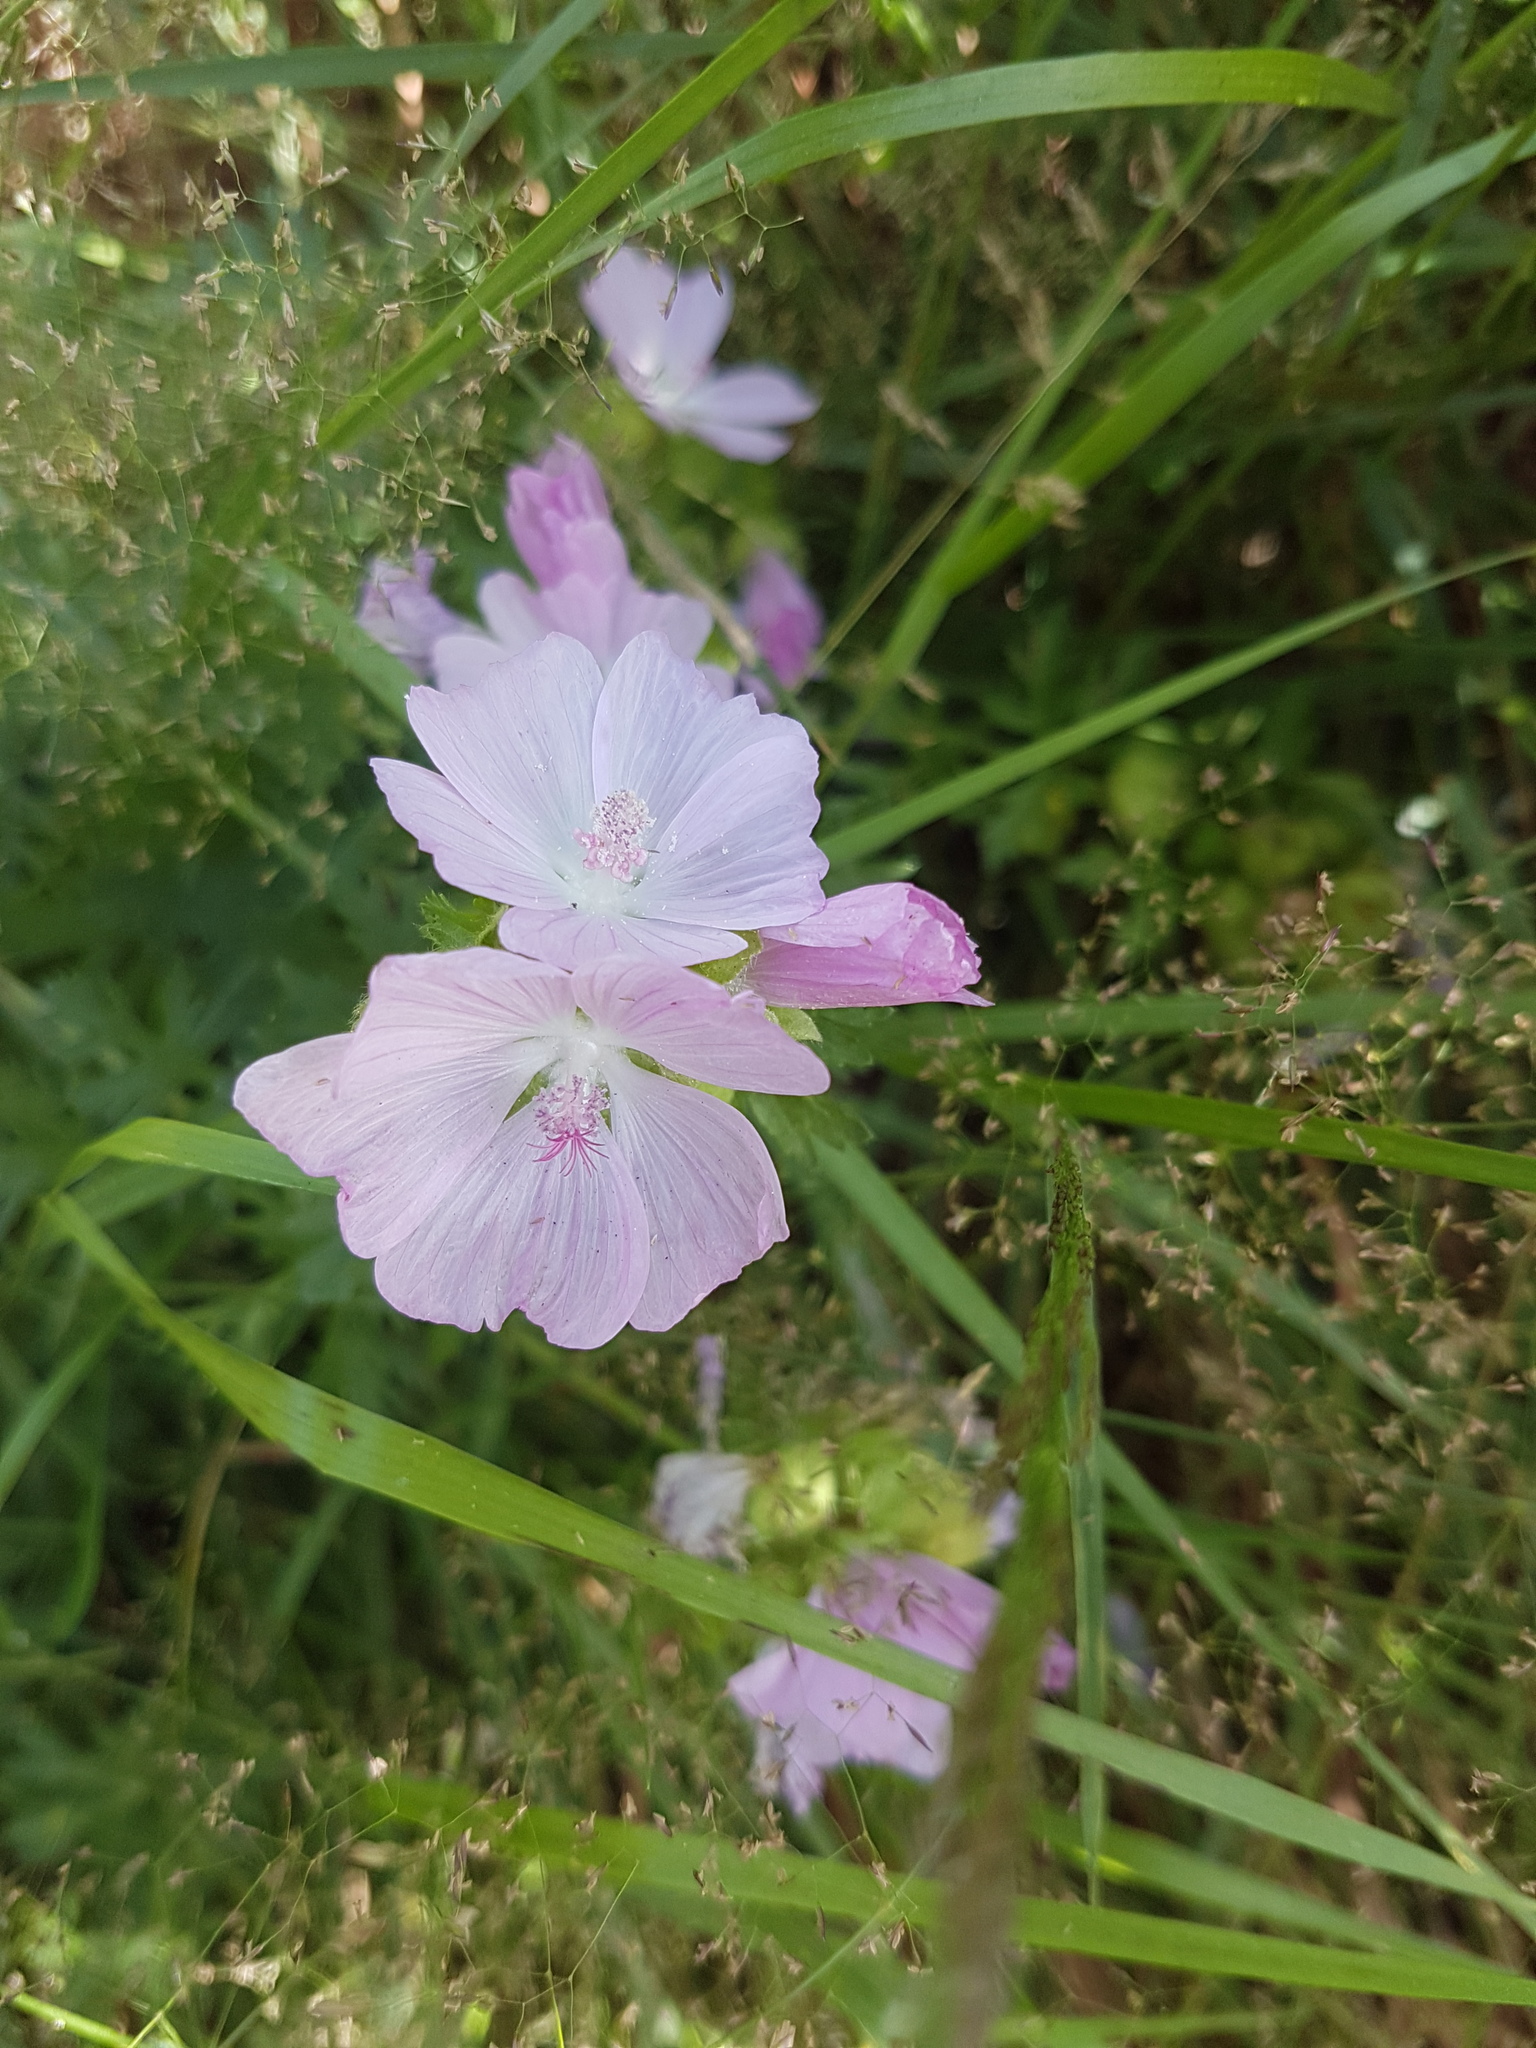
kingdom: Plantae
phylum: Tracheophyta
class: Magnoliopsida
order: Malvales
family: Malvaceae
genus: Malva
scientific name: Malva moschata
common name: Musk mallow
